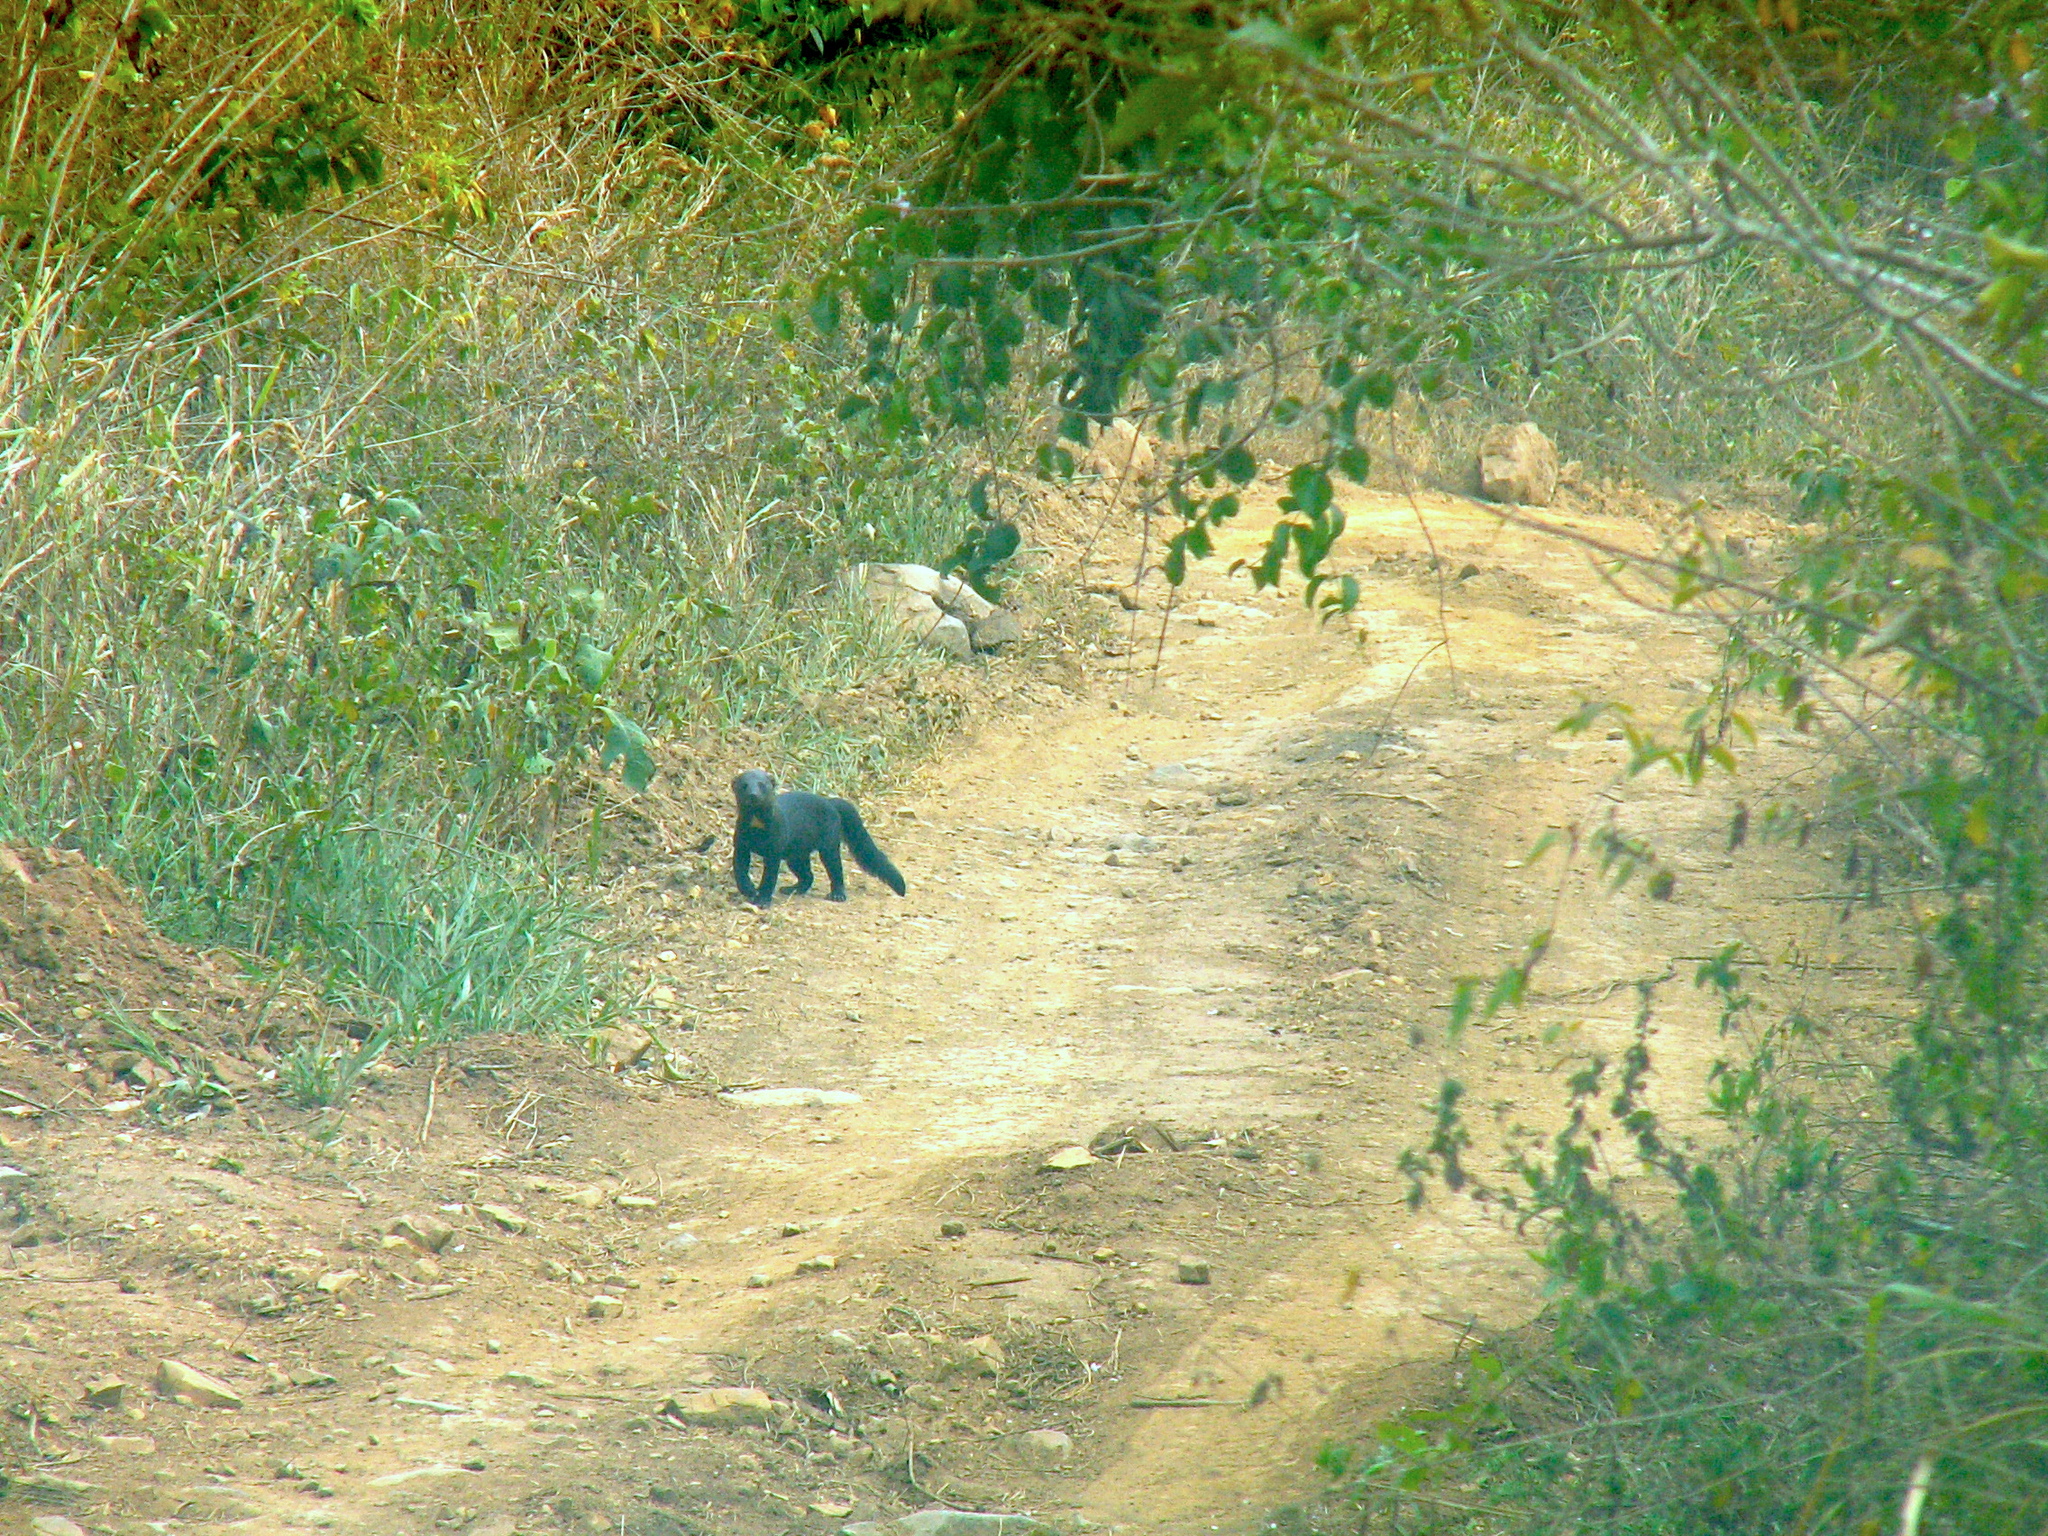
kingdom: Animalia
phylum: Chordata
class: Mammalia
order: Carnivora
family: Mustelidae
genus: Eira
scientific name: Eira barbara
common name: Tayra
